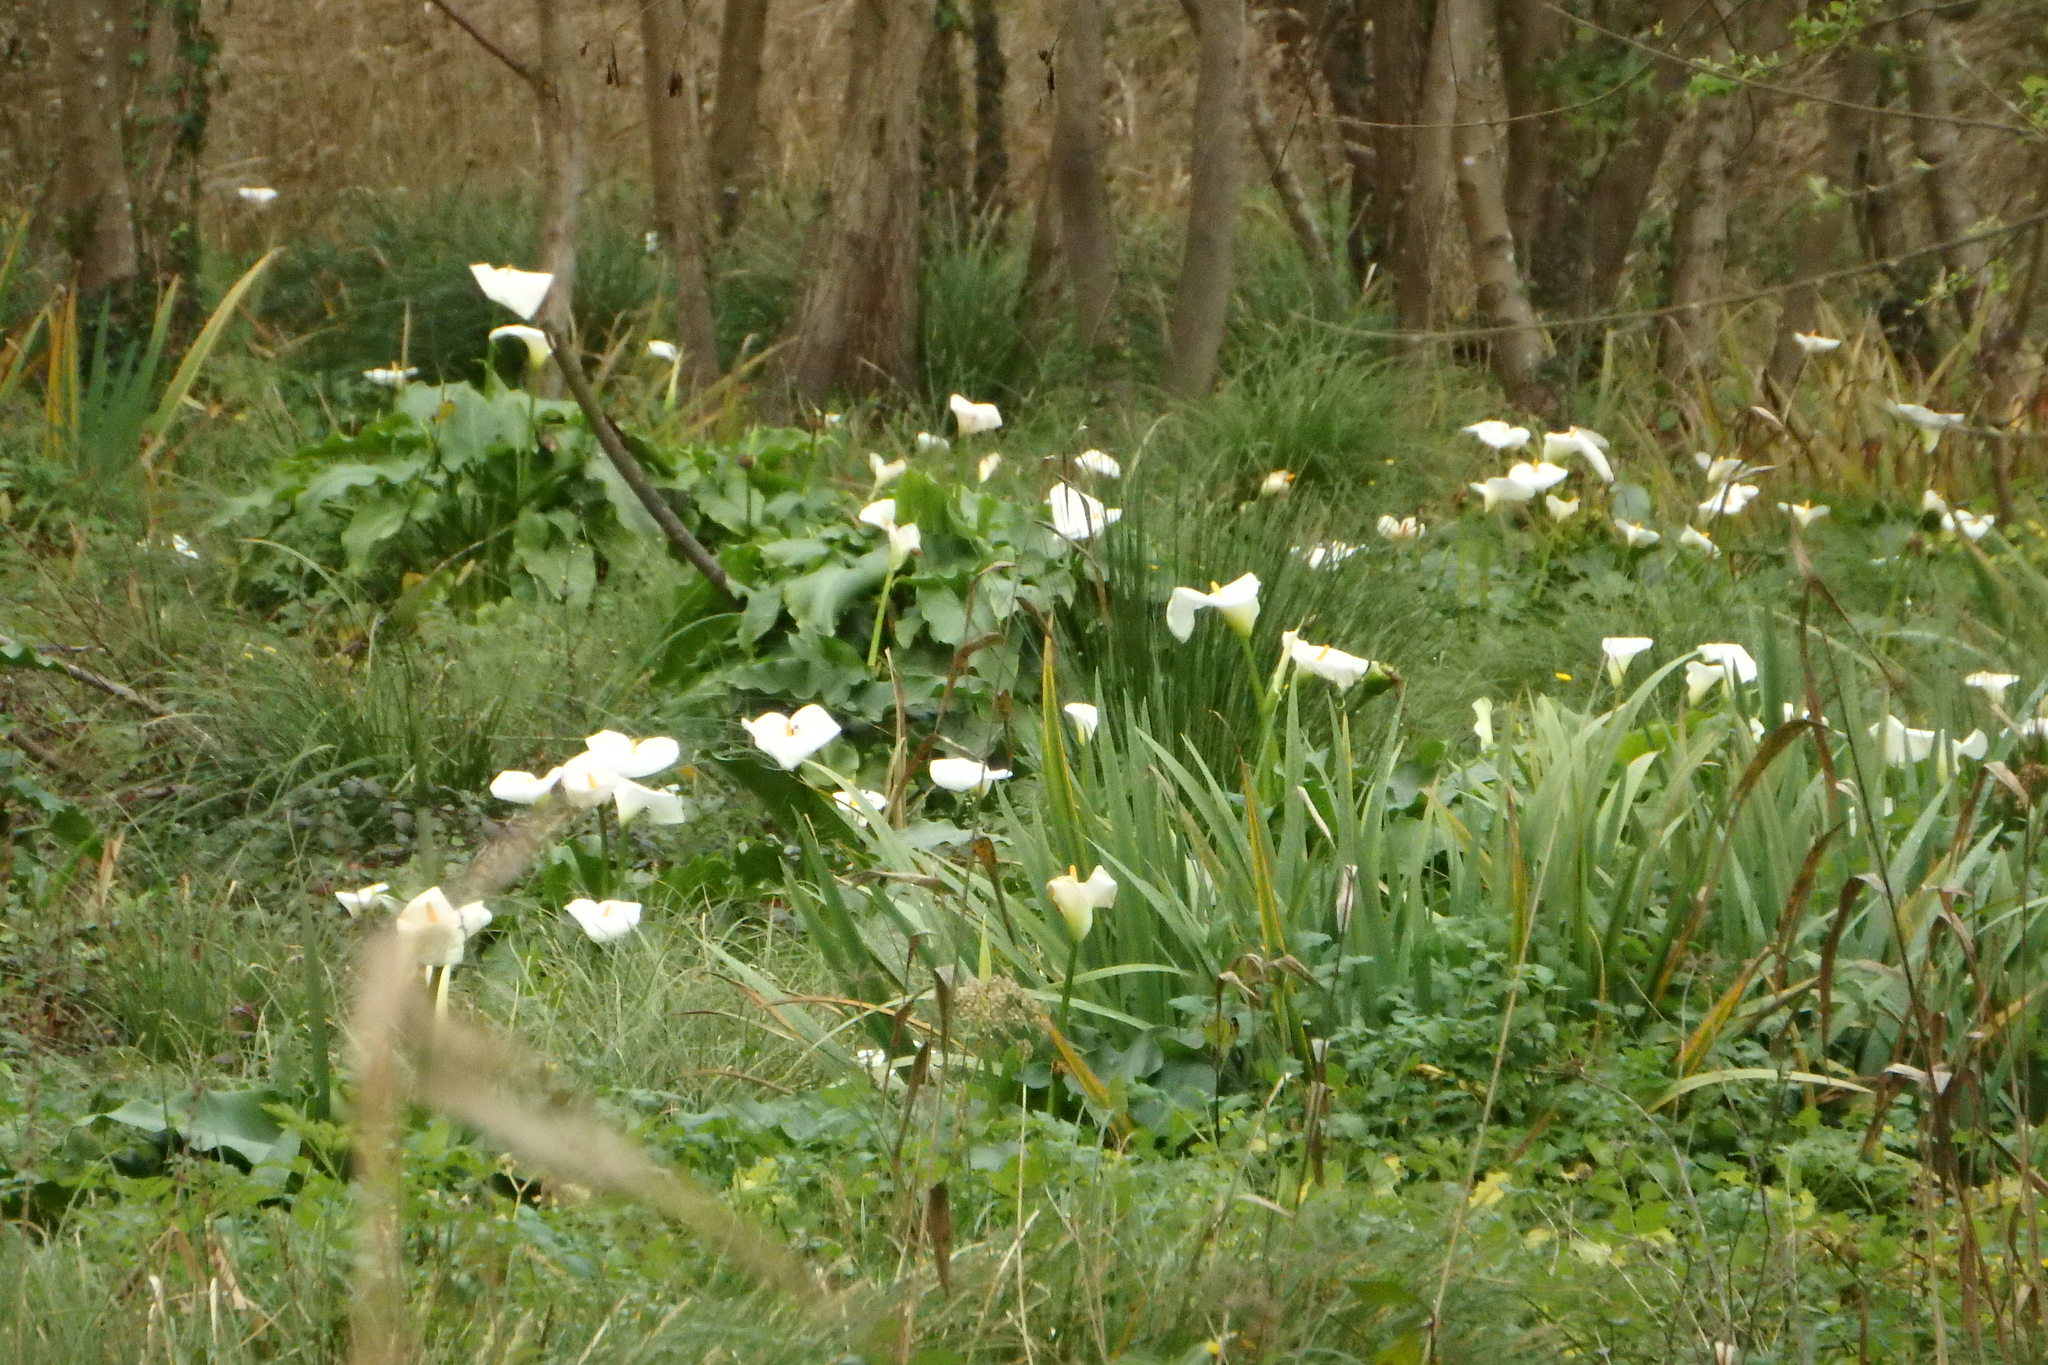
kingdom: Plantae
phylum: Tracheophyta
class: Liliopsida
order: Alismatales
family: Araceae
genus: Zantedeschia
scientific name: Zantedeschia aethiopica
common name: Altar-lily
